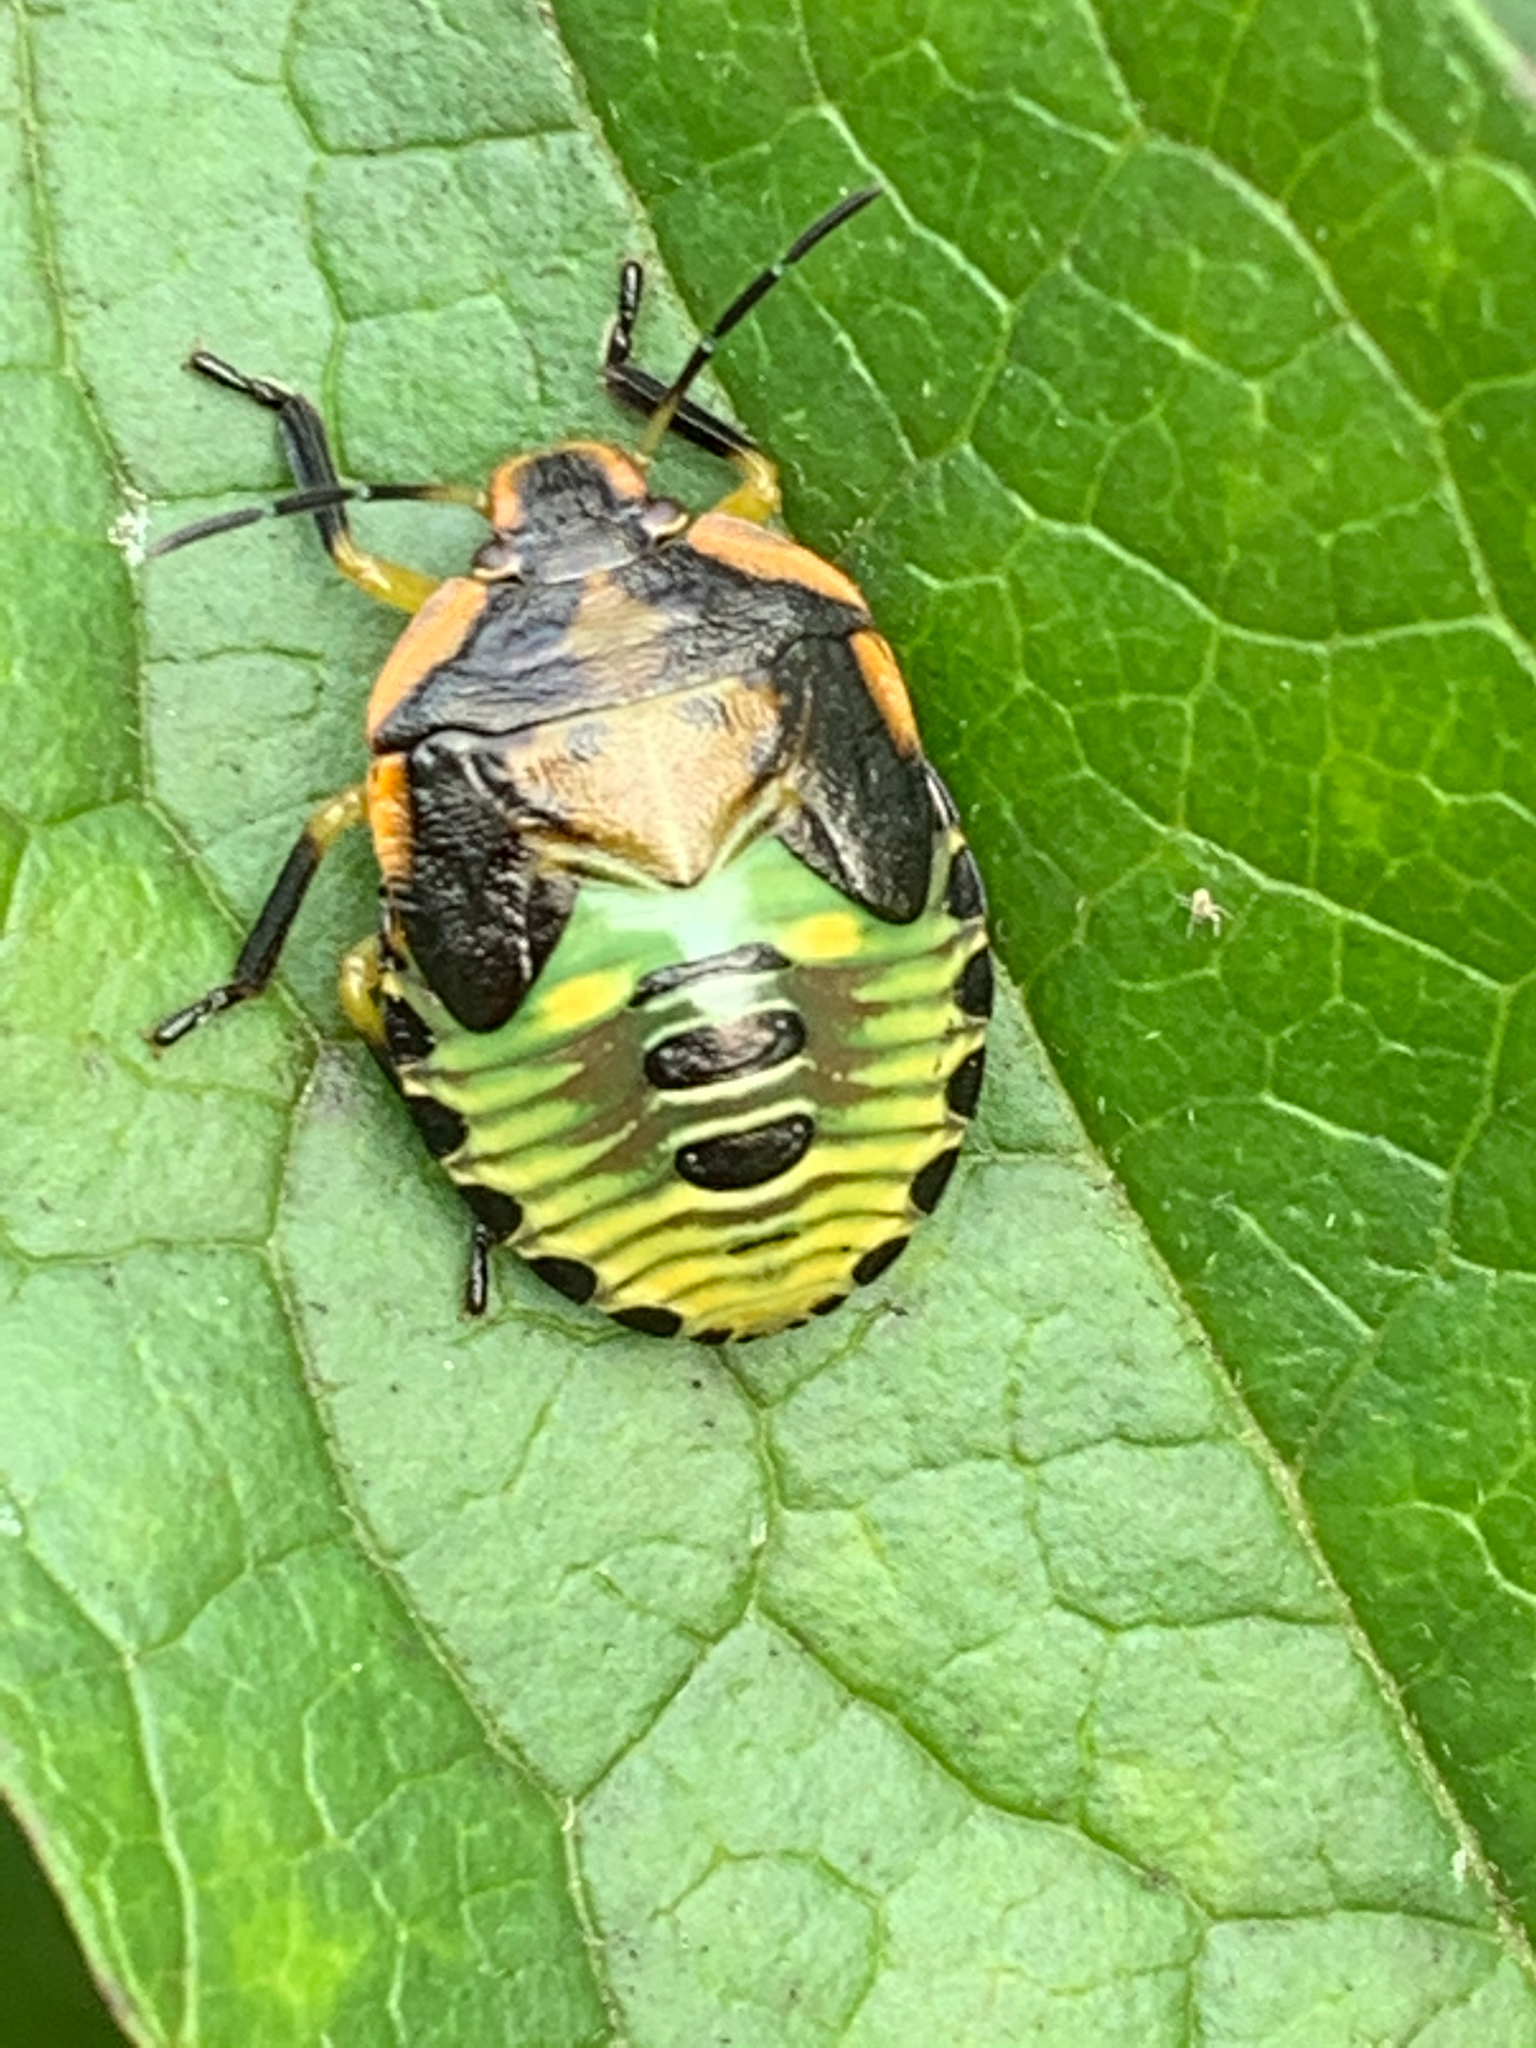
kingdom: Animalia
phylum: Arthropoda
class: Insecta
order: Hemiptera
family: Pentatomidae
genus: Chinavia
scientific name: Chinavia hilaris
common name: Green stink bug
